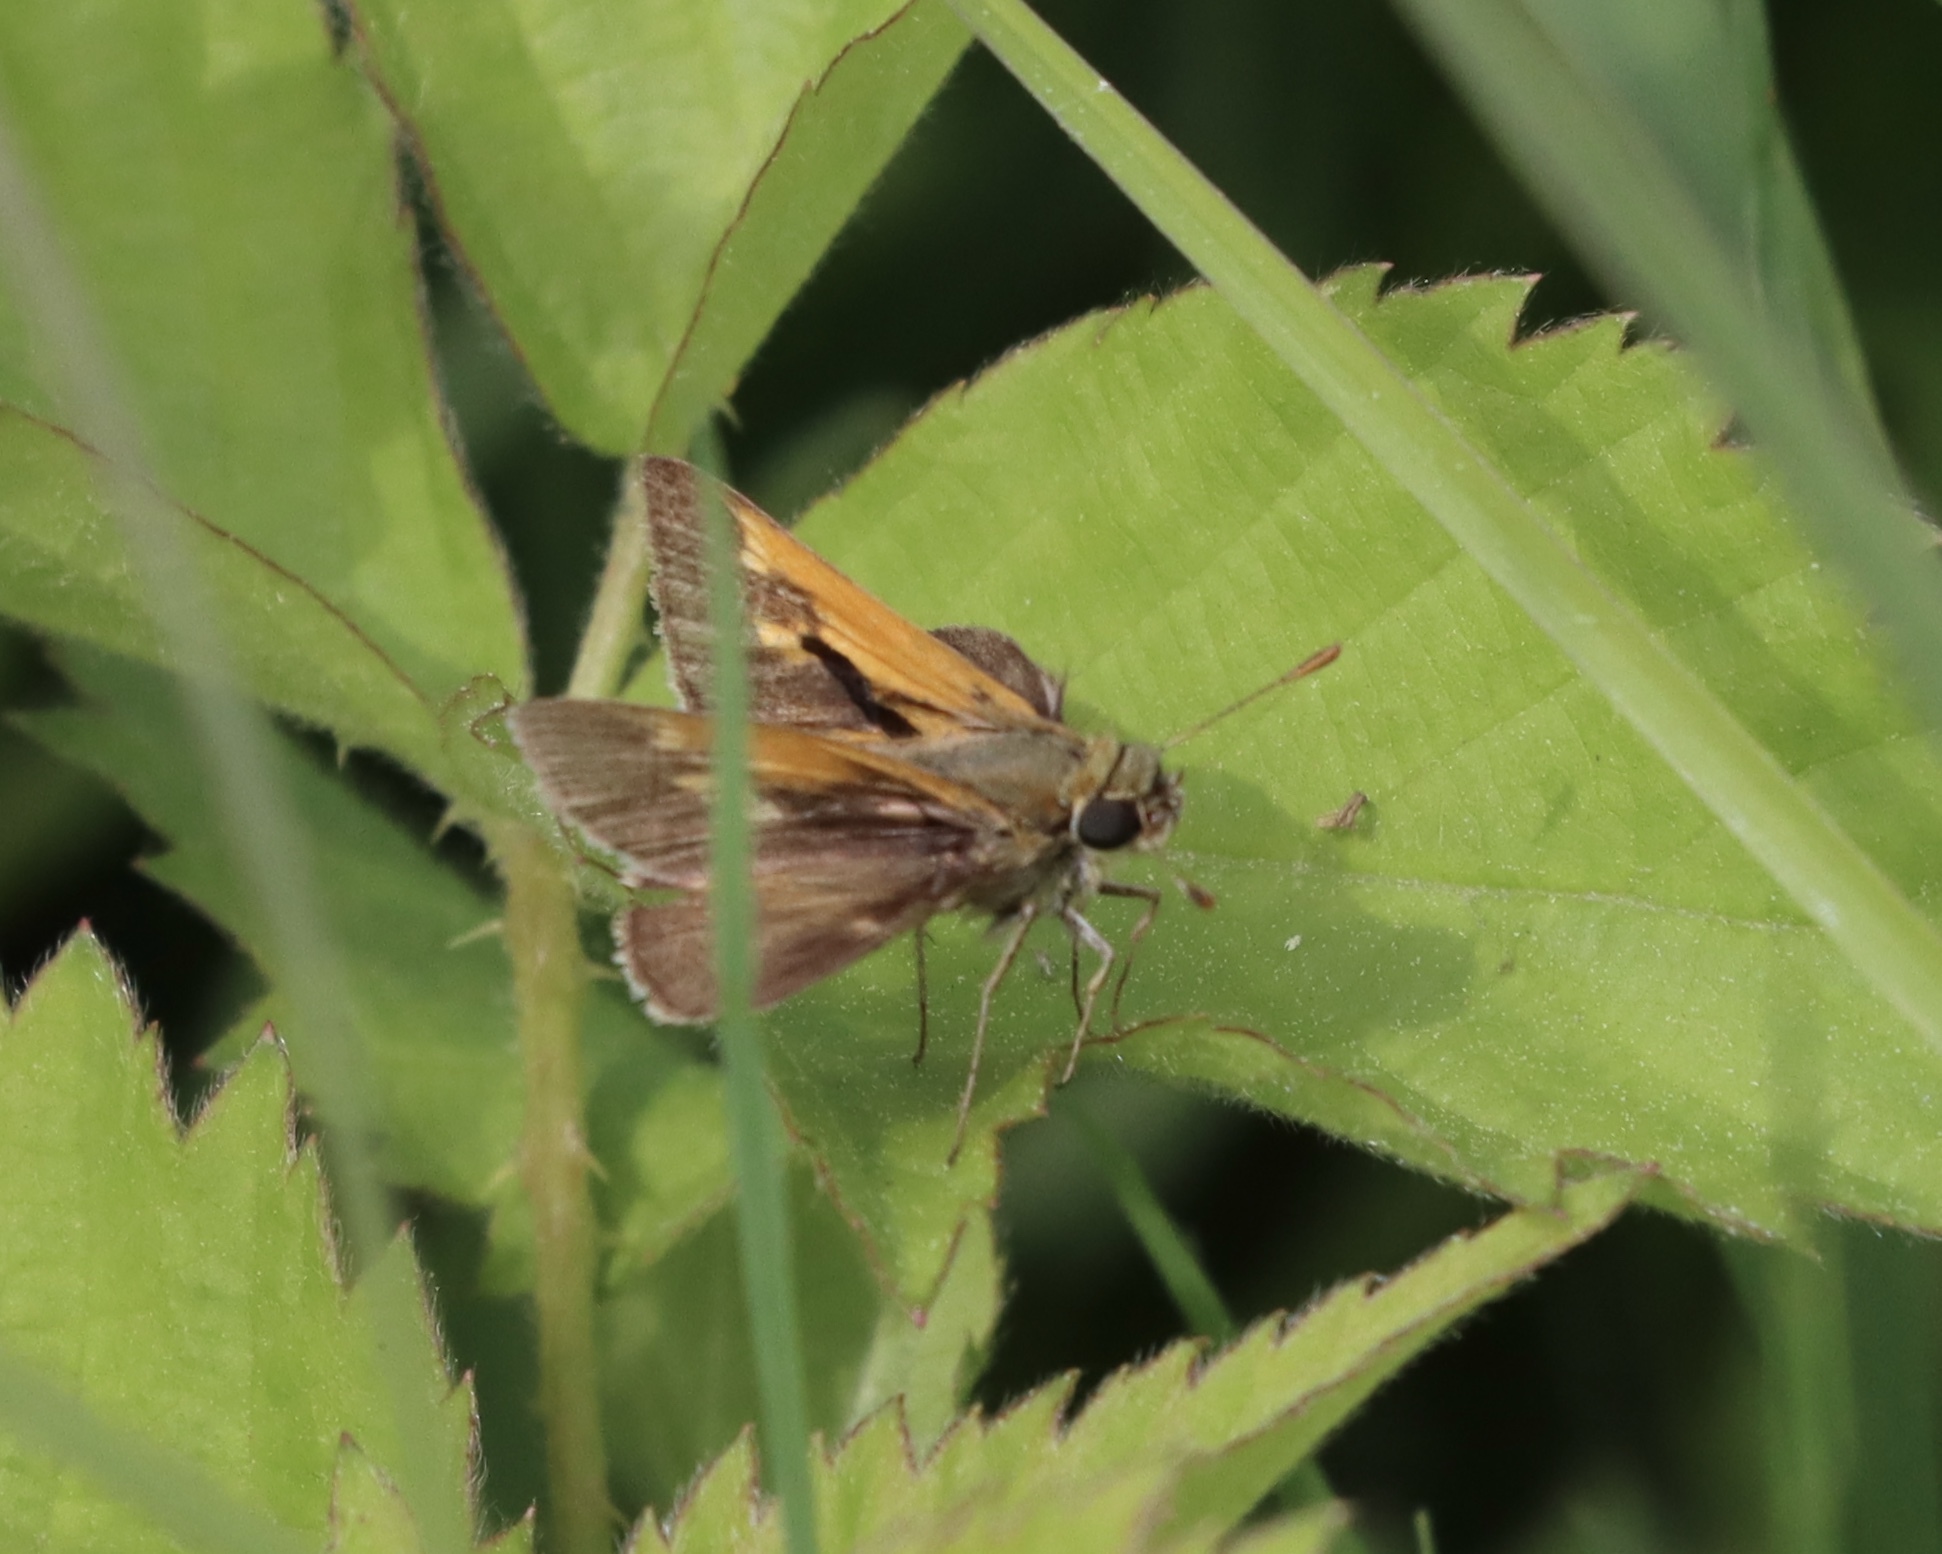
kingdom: Animalia
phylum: Arthropoda
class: Insecta
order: Lepidoptera
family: Hesperiidae
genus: Polites
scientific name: Polites themistocles
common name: Tawny-edged skipper
